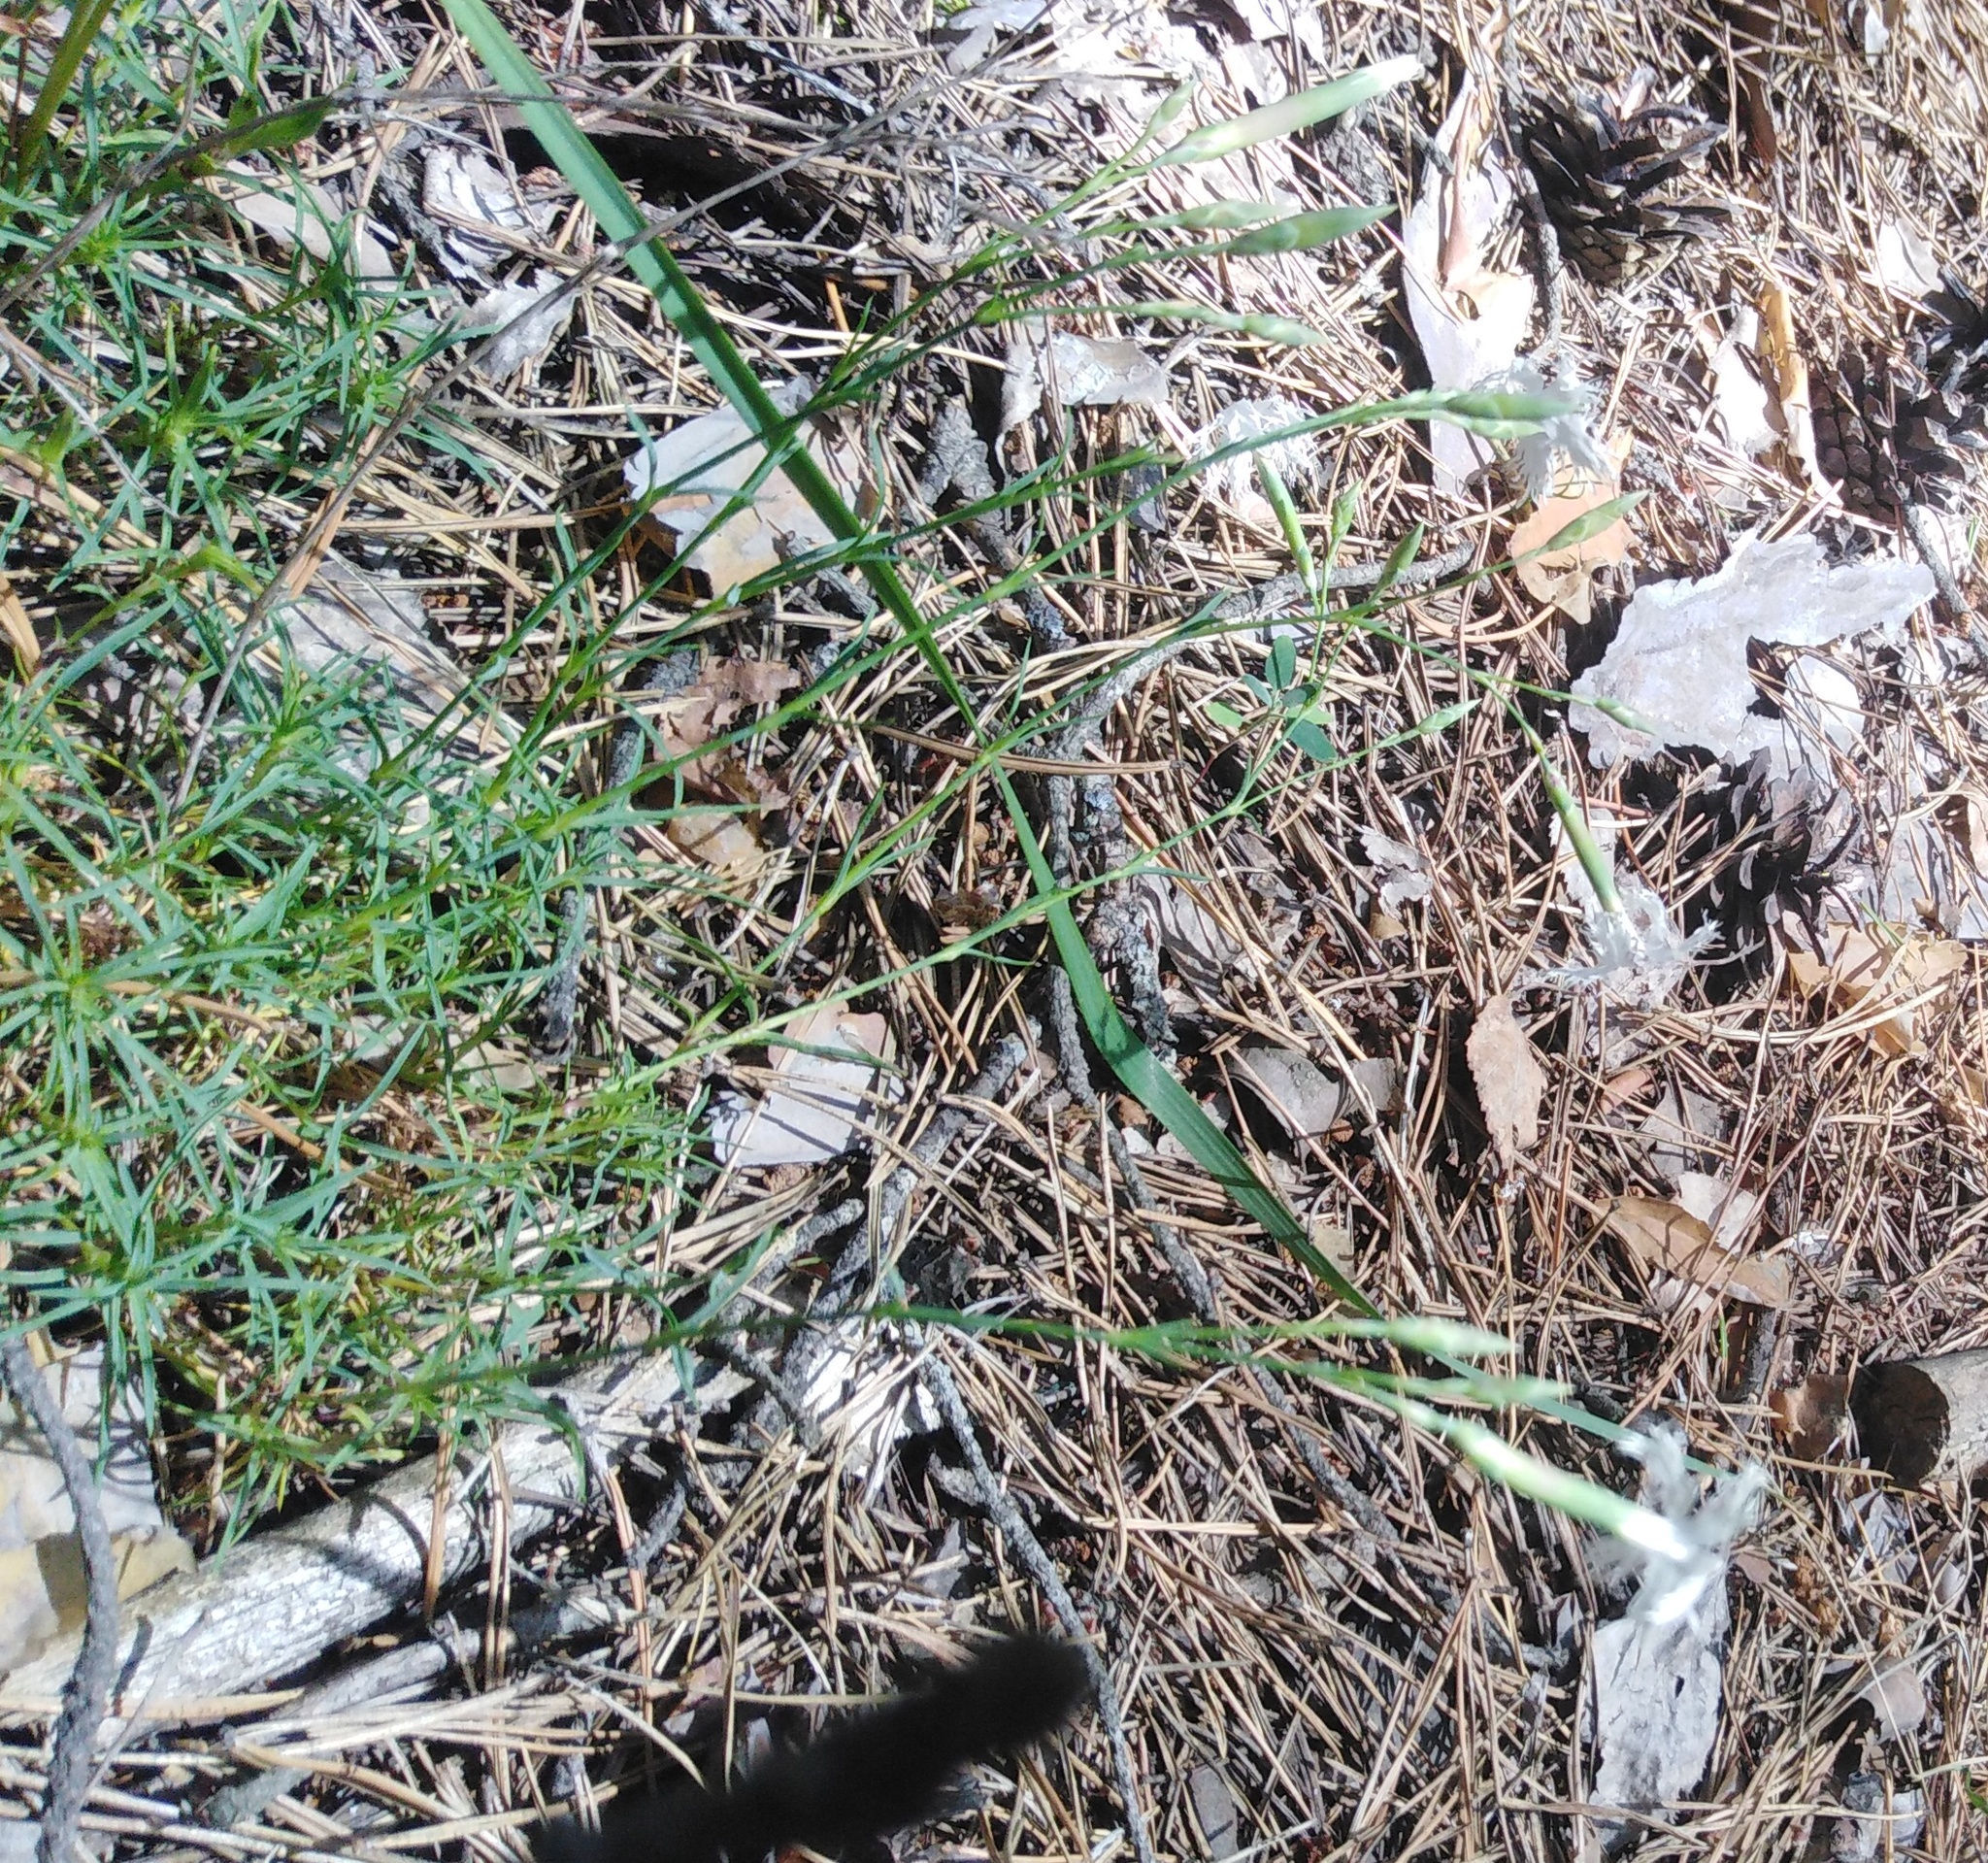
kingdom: Plantae
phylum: Tracheophyta
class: Magnoliopsida
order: Caryophyllales
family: Caryophyllaceae
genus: Dianthus
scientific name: Dianthus arenarius
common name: Stone pink
